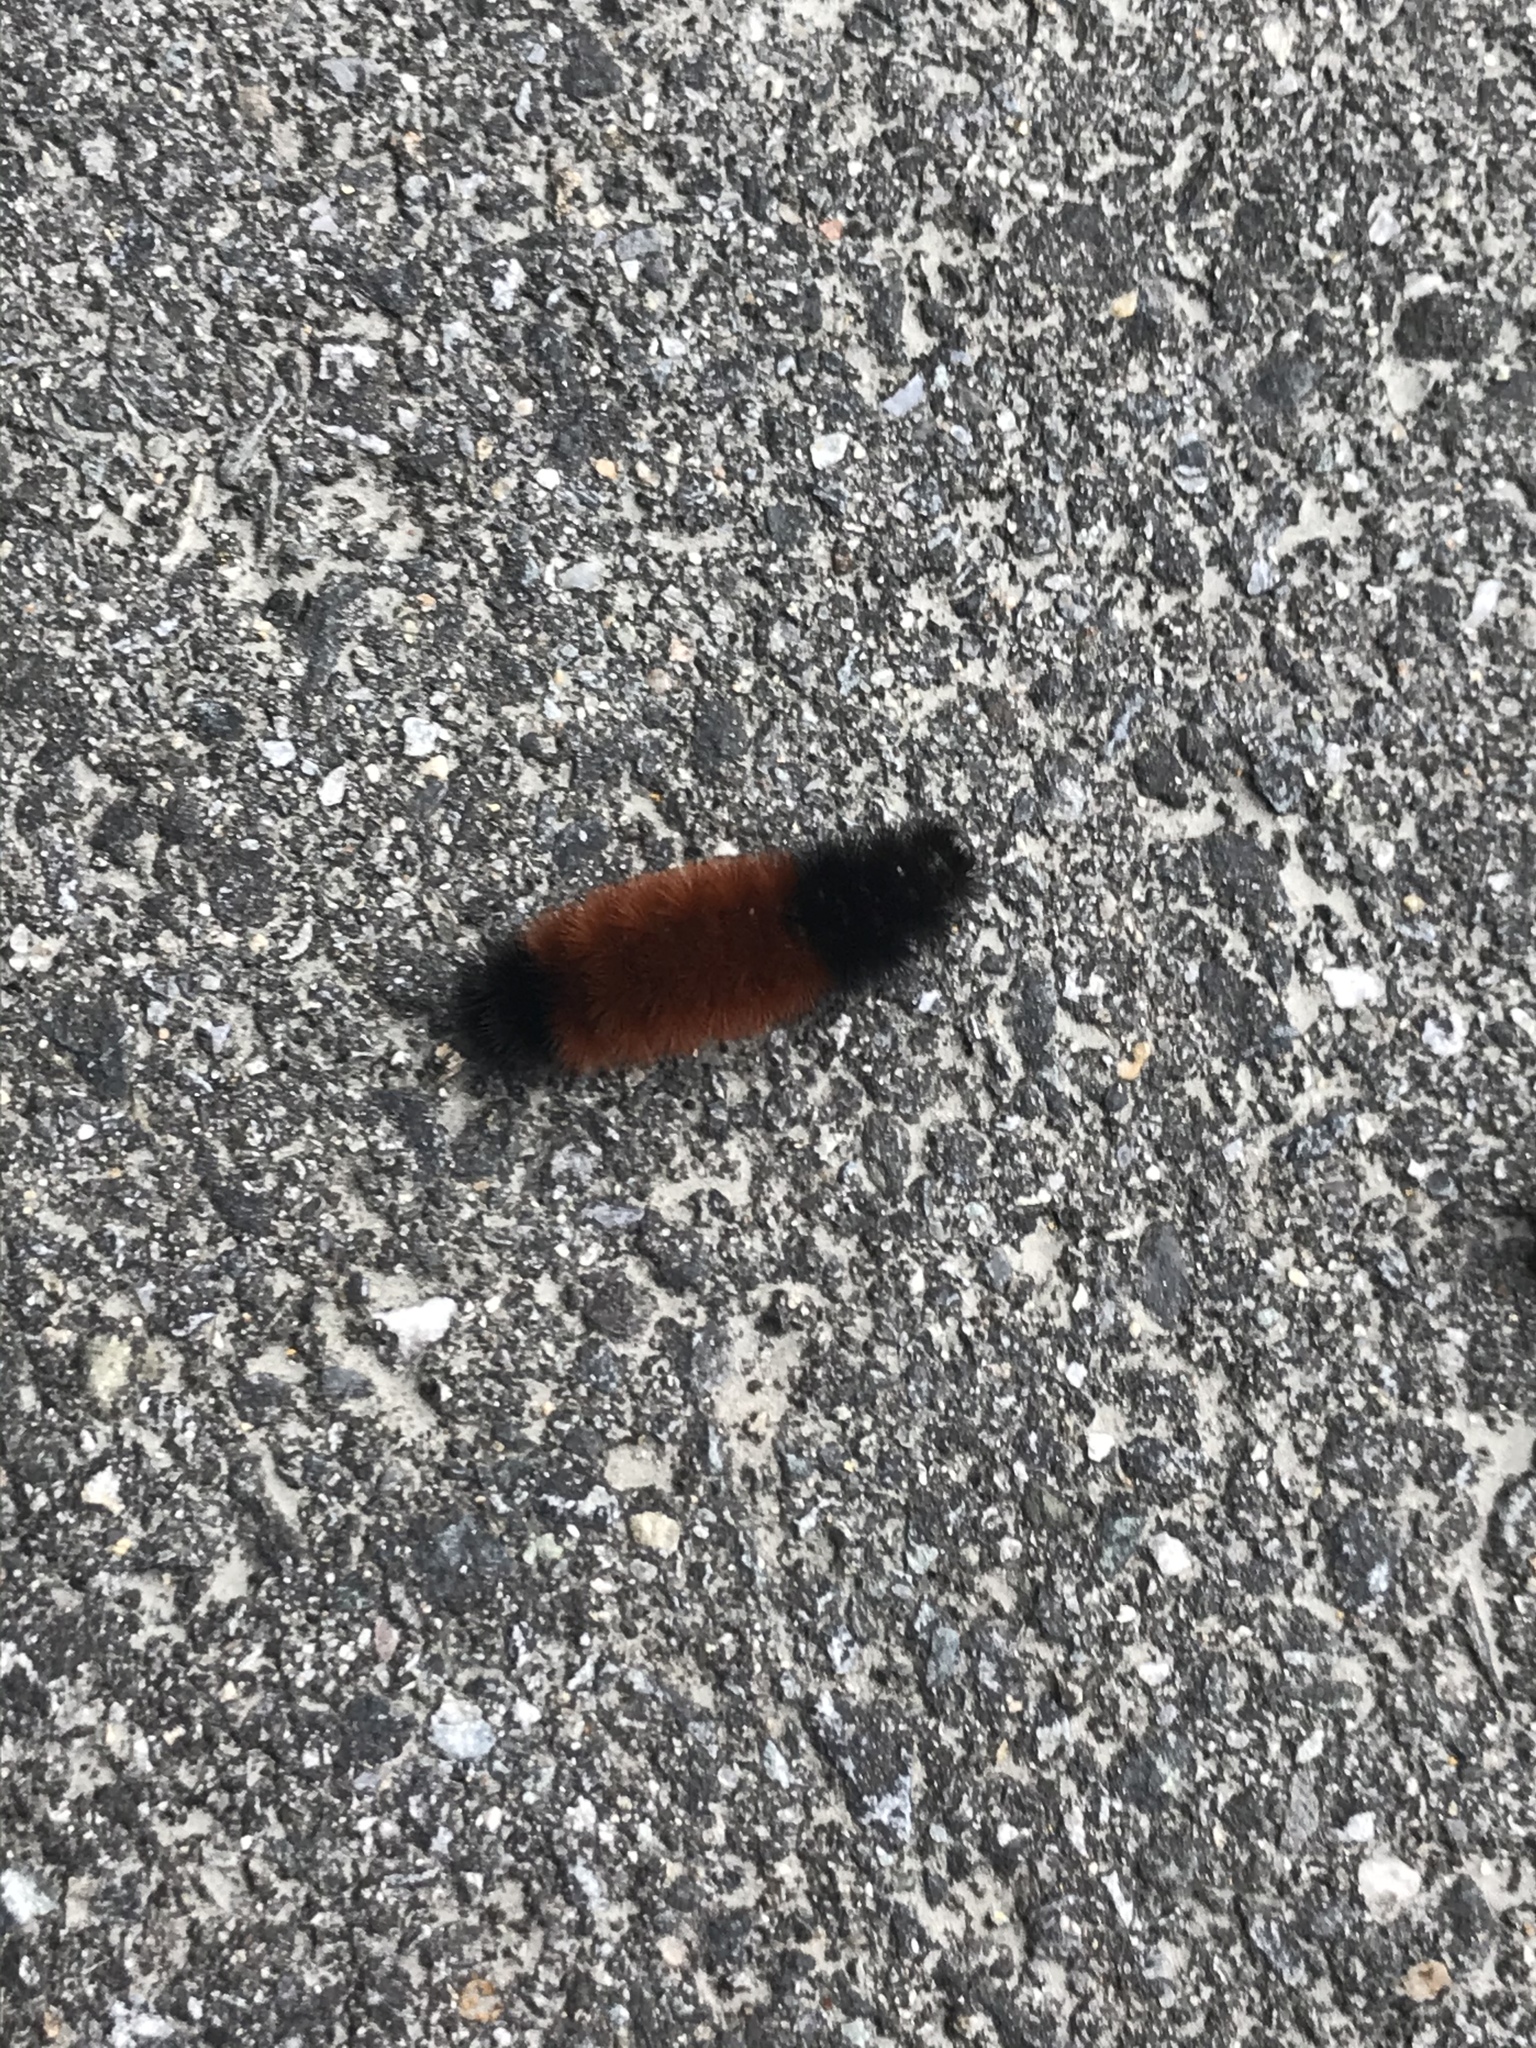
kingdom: Animalia
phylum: Arthropoda
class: Insecta
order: Lepidoptera
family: Erebidae
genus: Pyrrharctia
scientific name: Pyrrharctia isabella
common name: Isabella tiger moth
